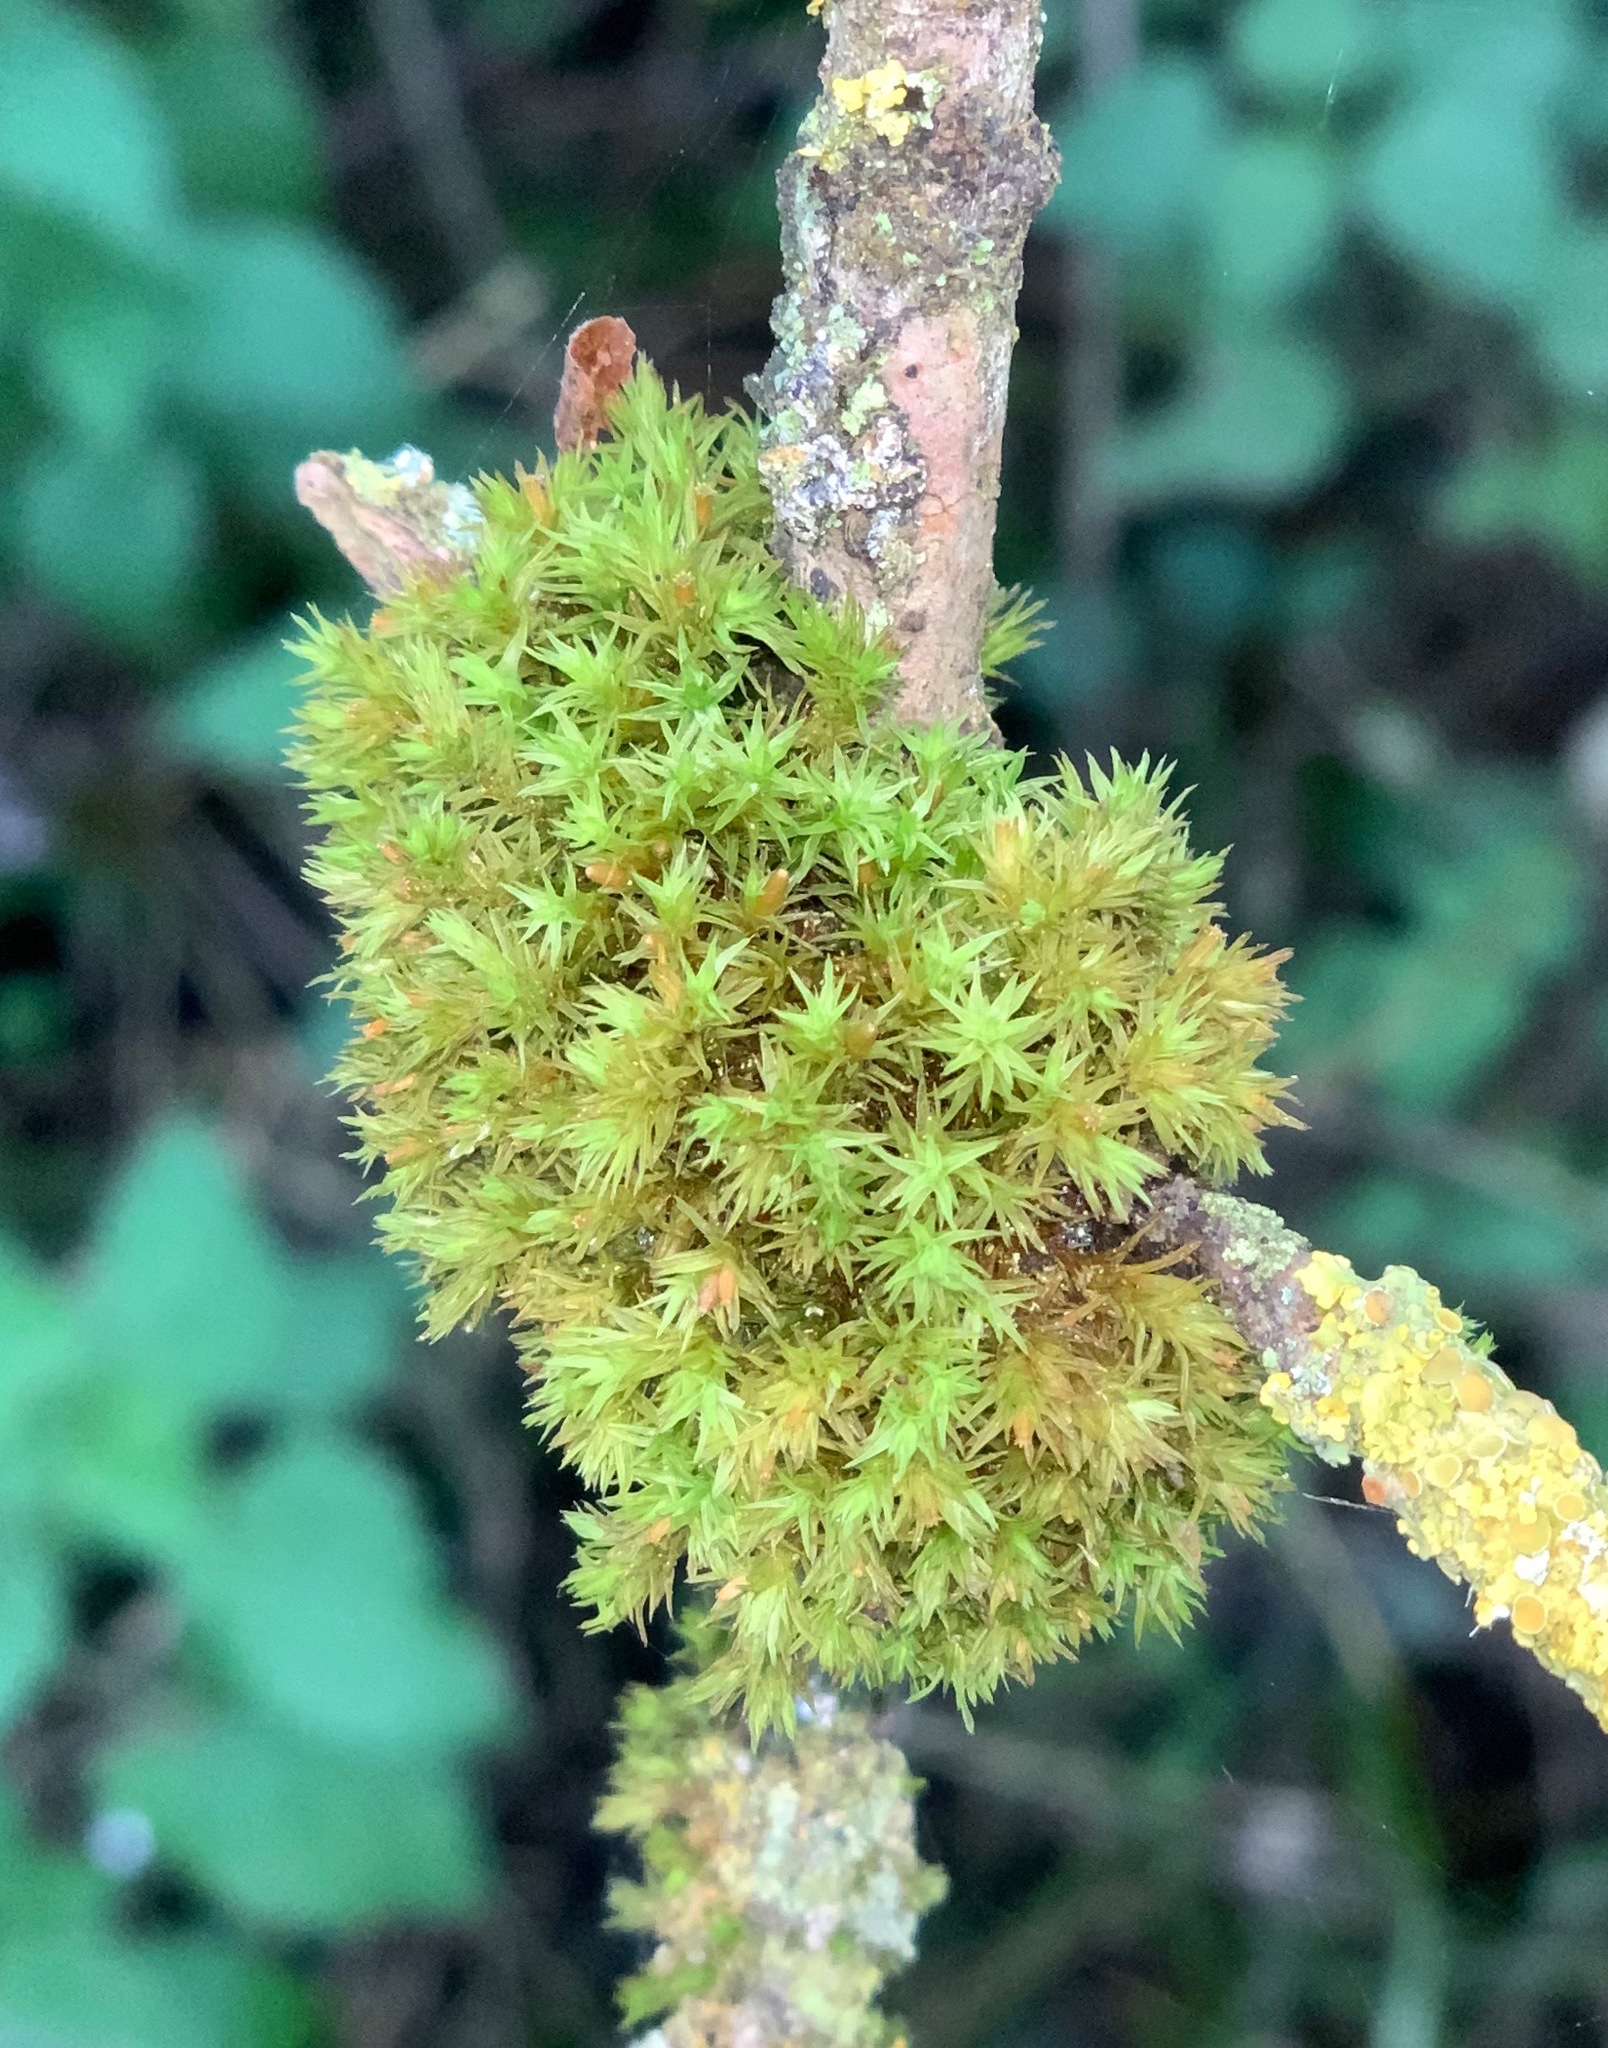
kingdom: Plantae
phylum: Bryophyta
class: Bryopsida
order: Orthotrichales
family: Orthotrichaceae
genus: Lewinskya
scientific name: Lewinskya affinis
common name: Wood bristle-moss
